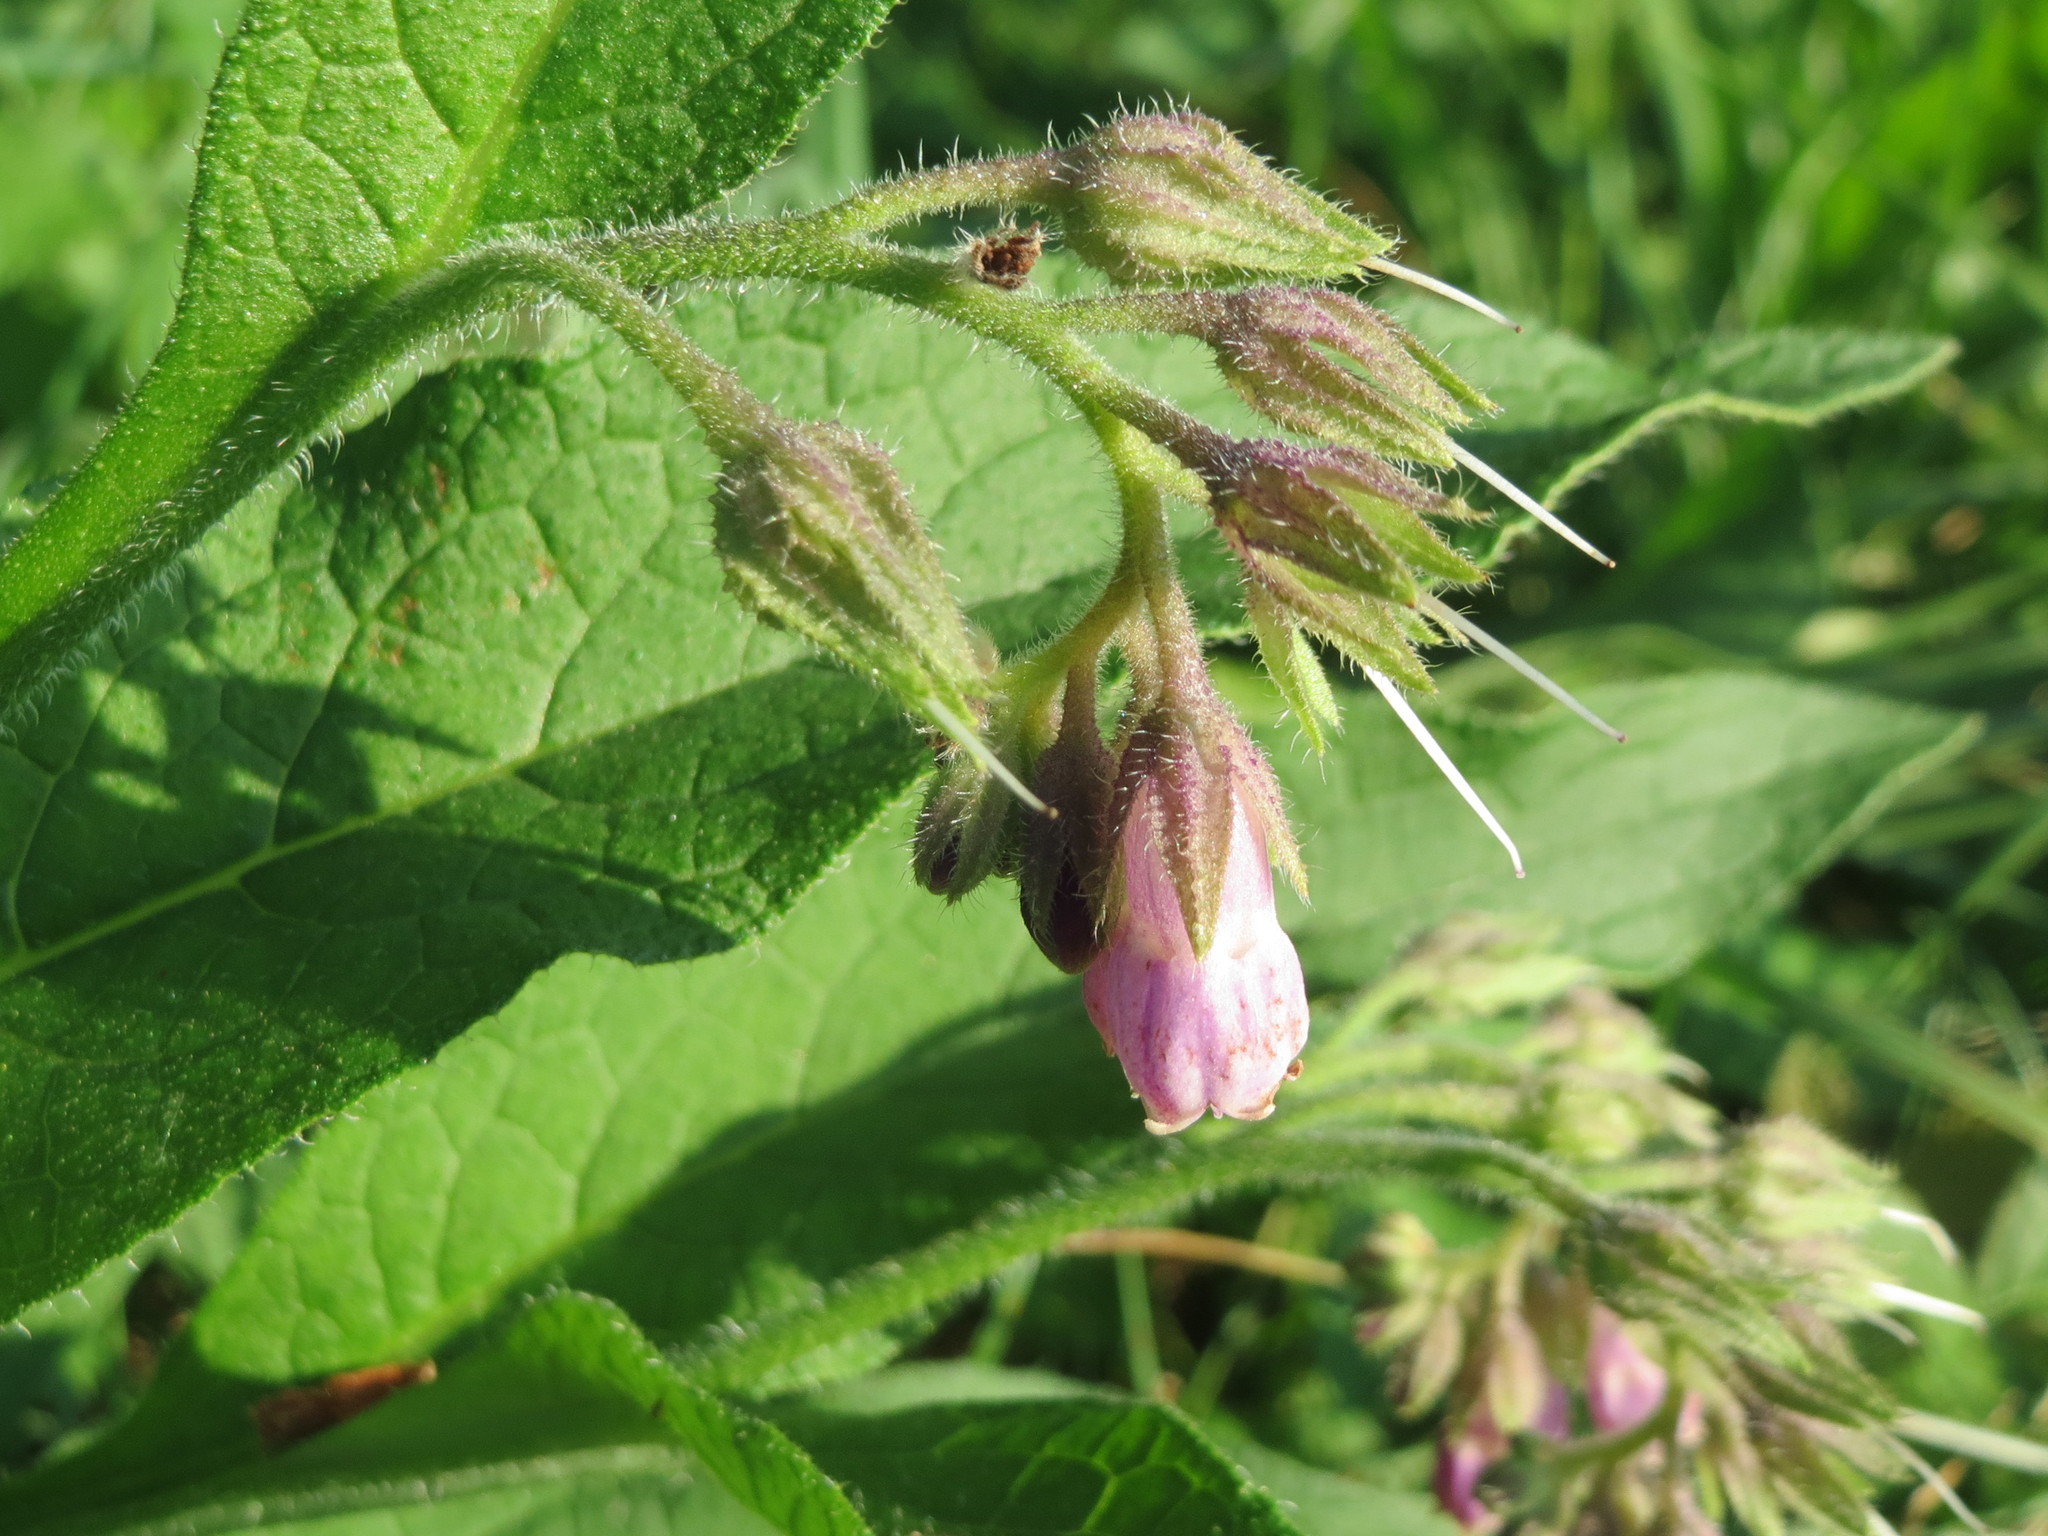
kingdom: Plantae
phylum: Tracheophyta
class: Magnoliopsida
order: Boraginales
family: Boraginaceae
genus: Symphytum
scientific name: Symphytum officinale
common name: Common comfrey
